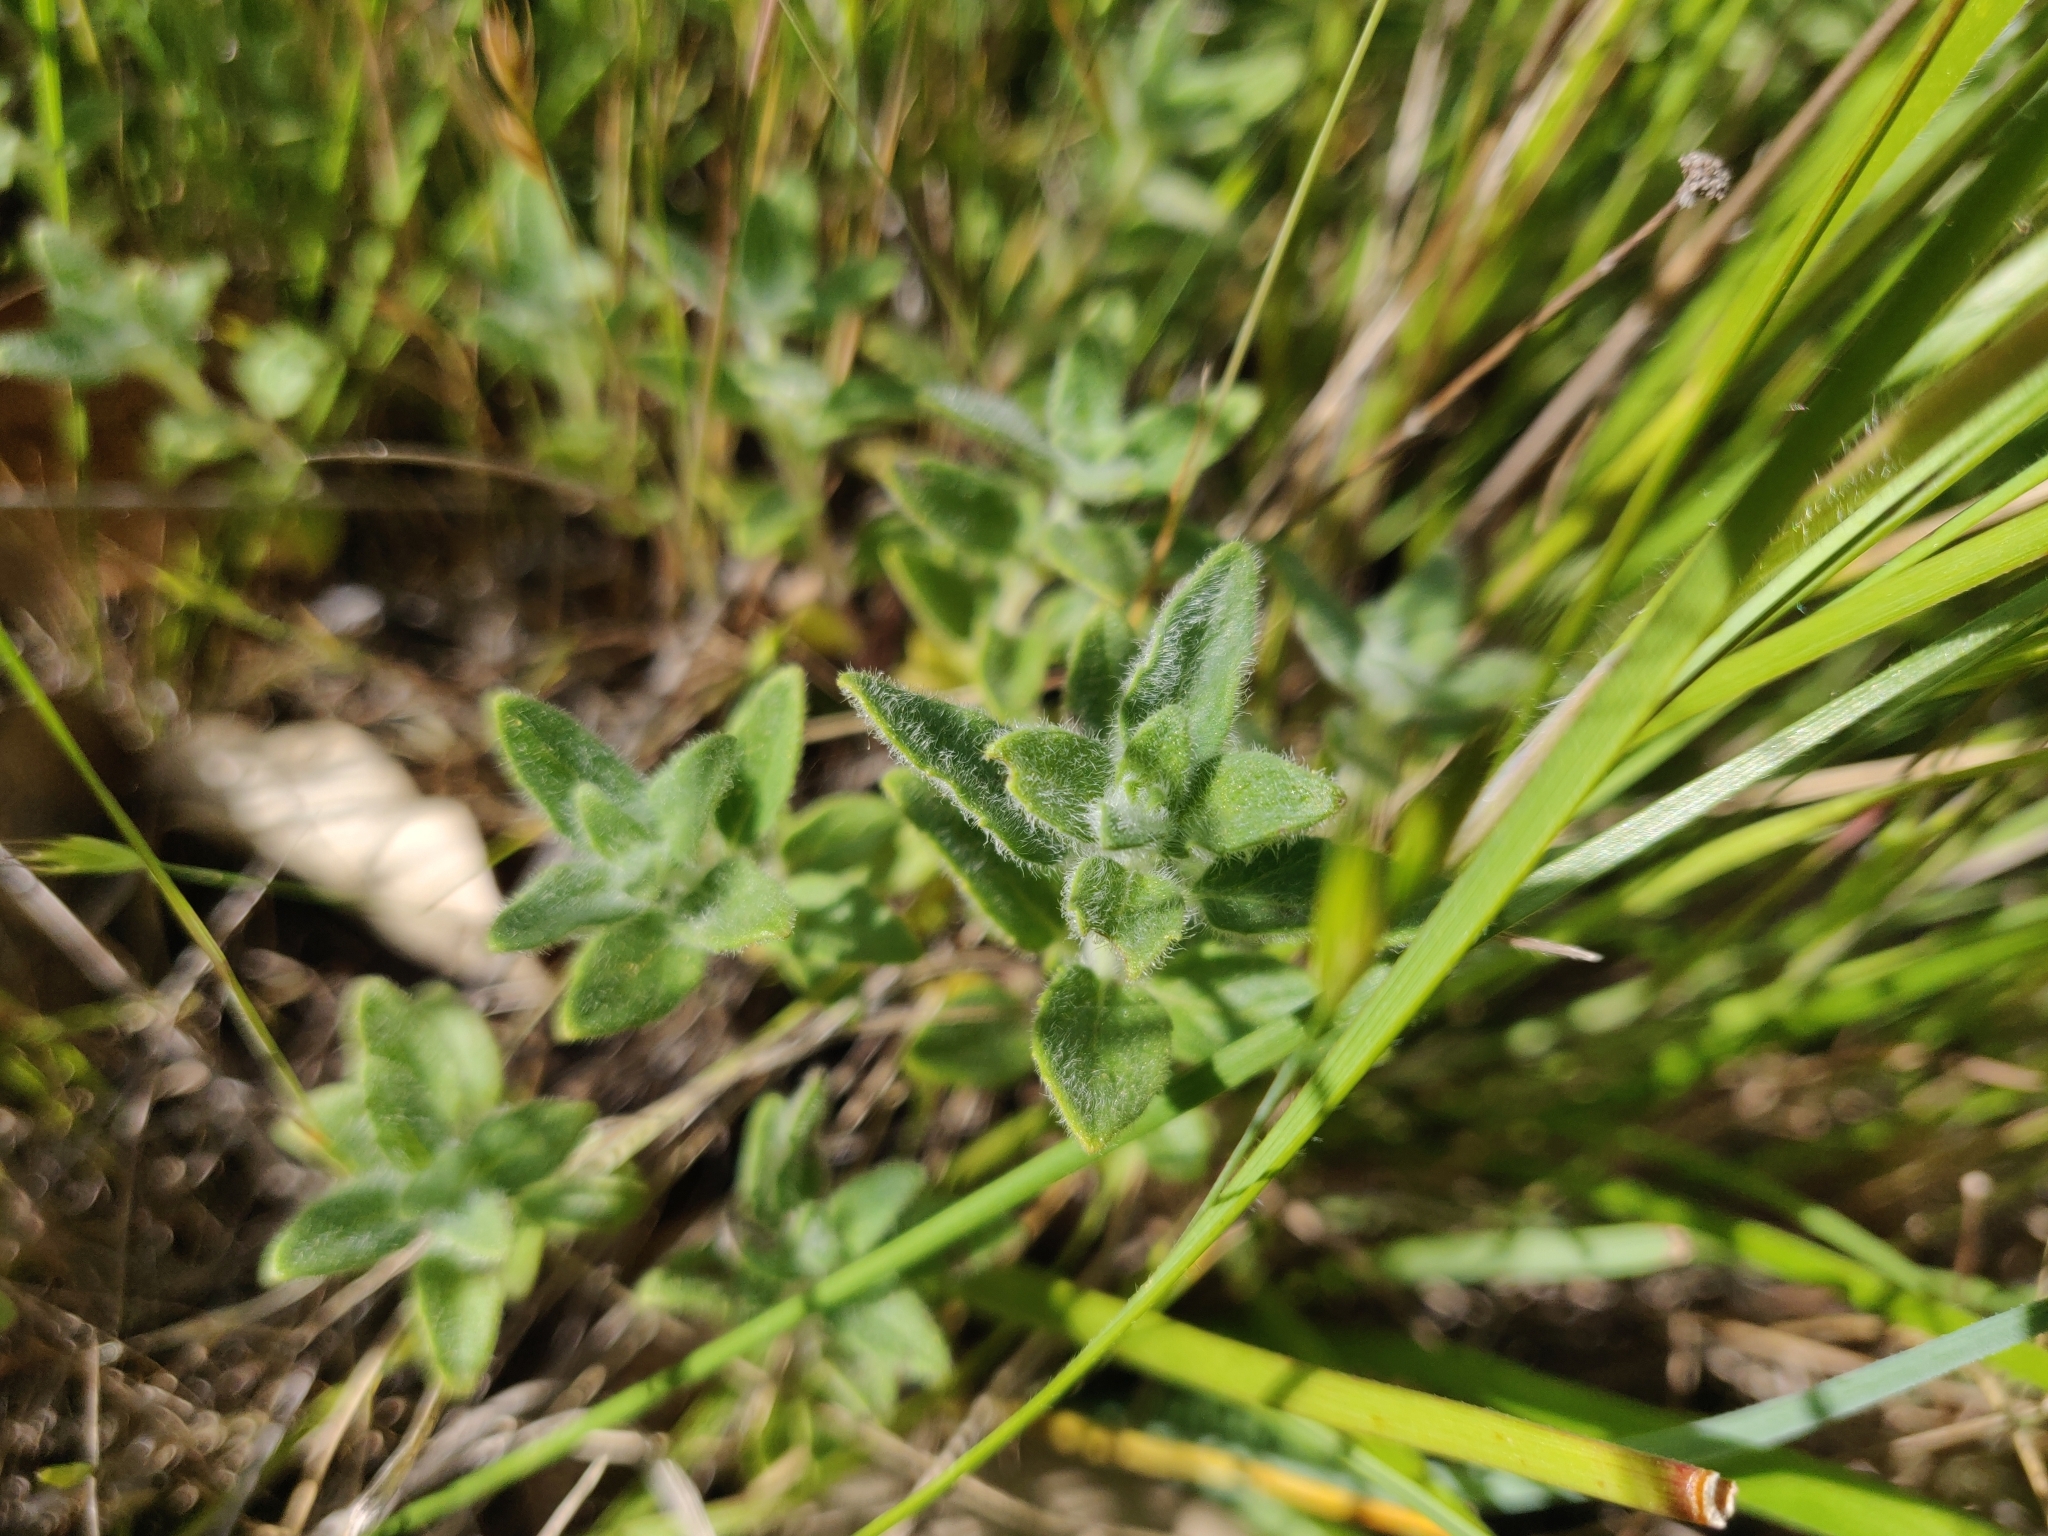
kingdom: Plantae
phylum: Tracheophyta
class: Magnoliopsida
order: Lamiales
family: Lamiaceae
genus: Monardella
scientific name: Monardella odoratissima
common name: Pacific monardella
